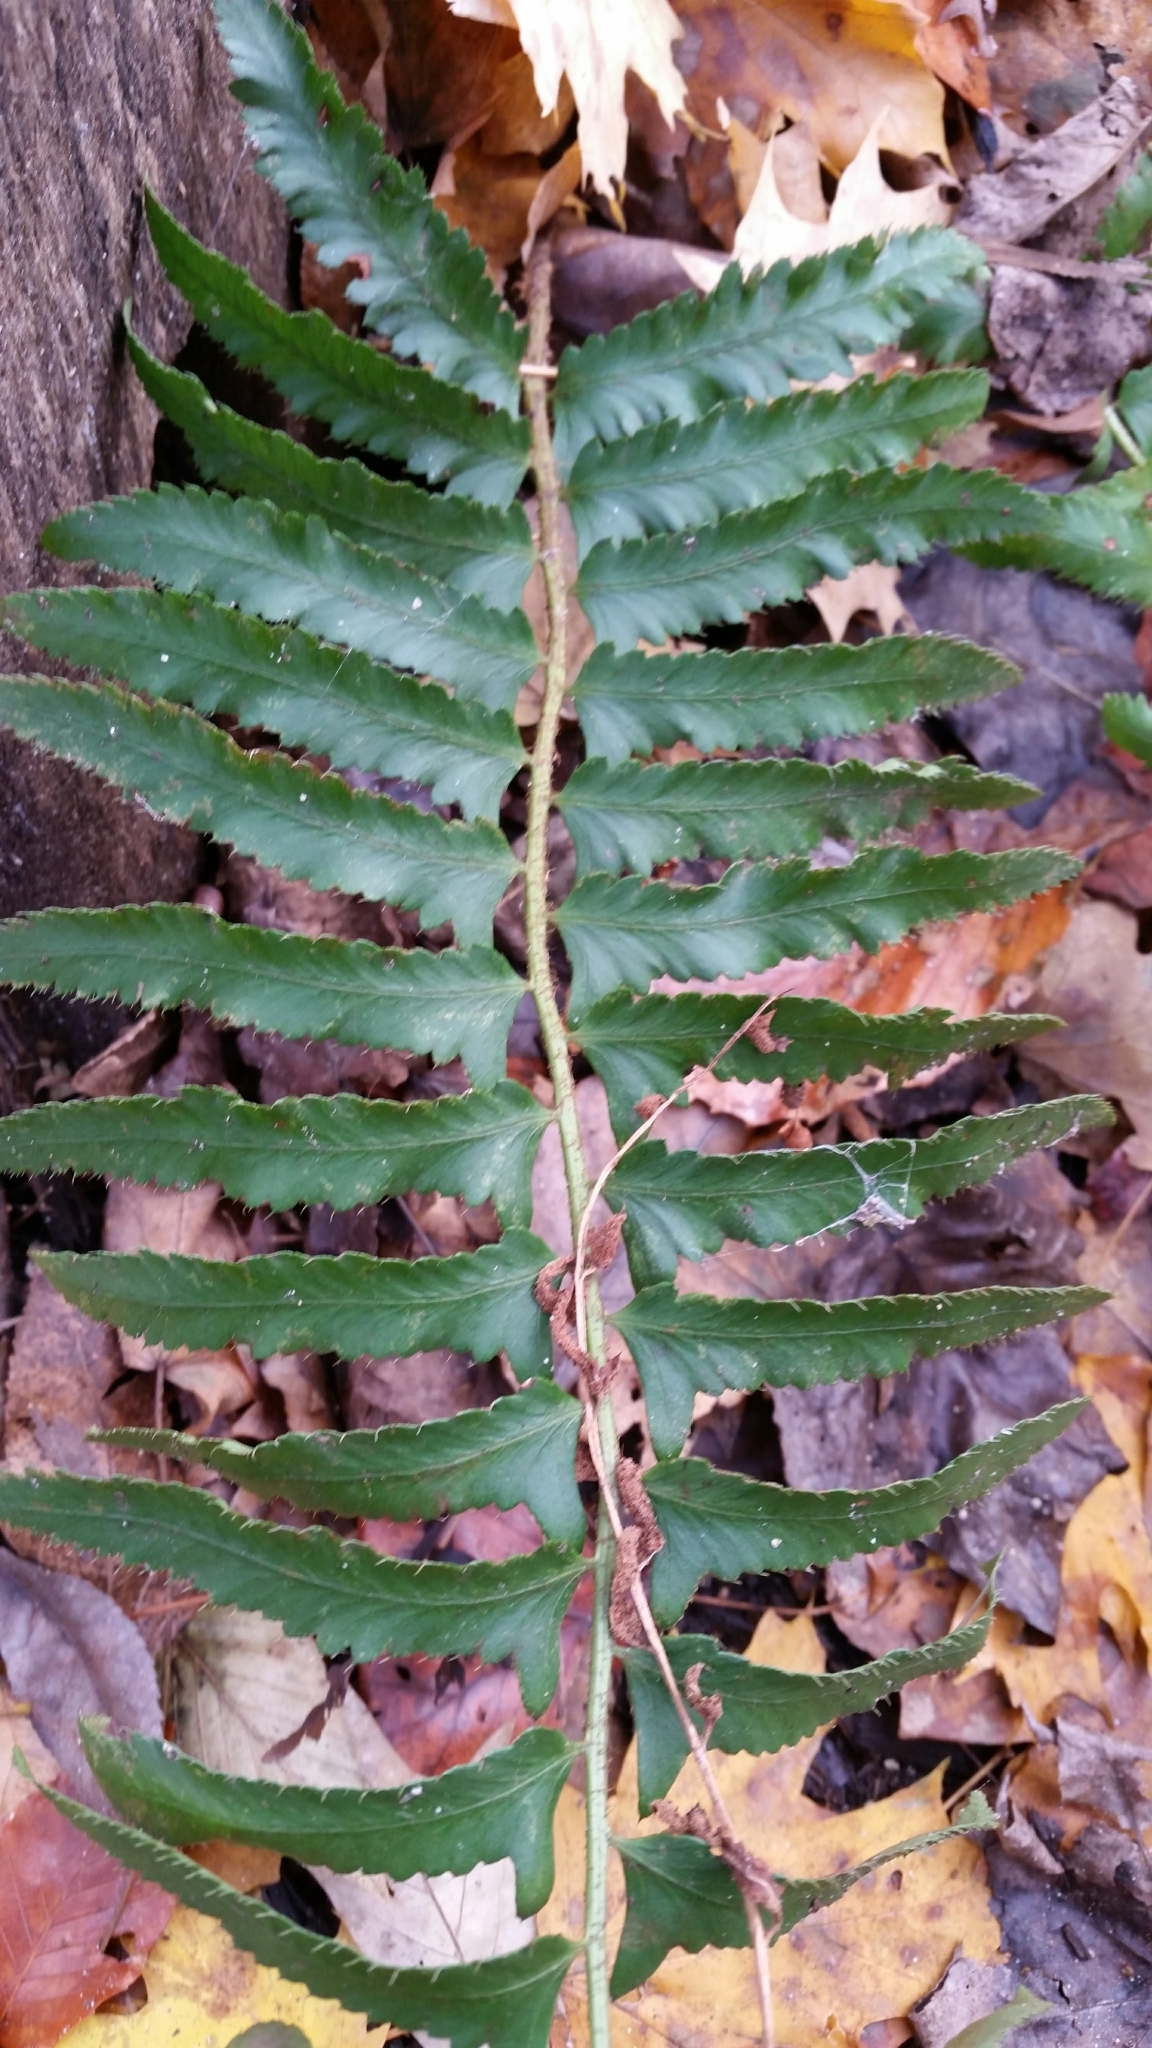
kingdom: Plantae
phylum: Tracheophyta
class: Polypodiopsida
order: Polypodiales
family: Dryopteridaceae
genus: Polystichum
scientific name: Polystichum acrostichoides
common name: Christmas fern
